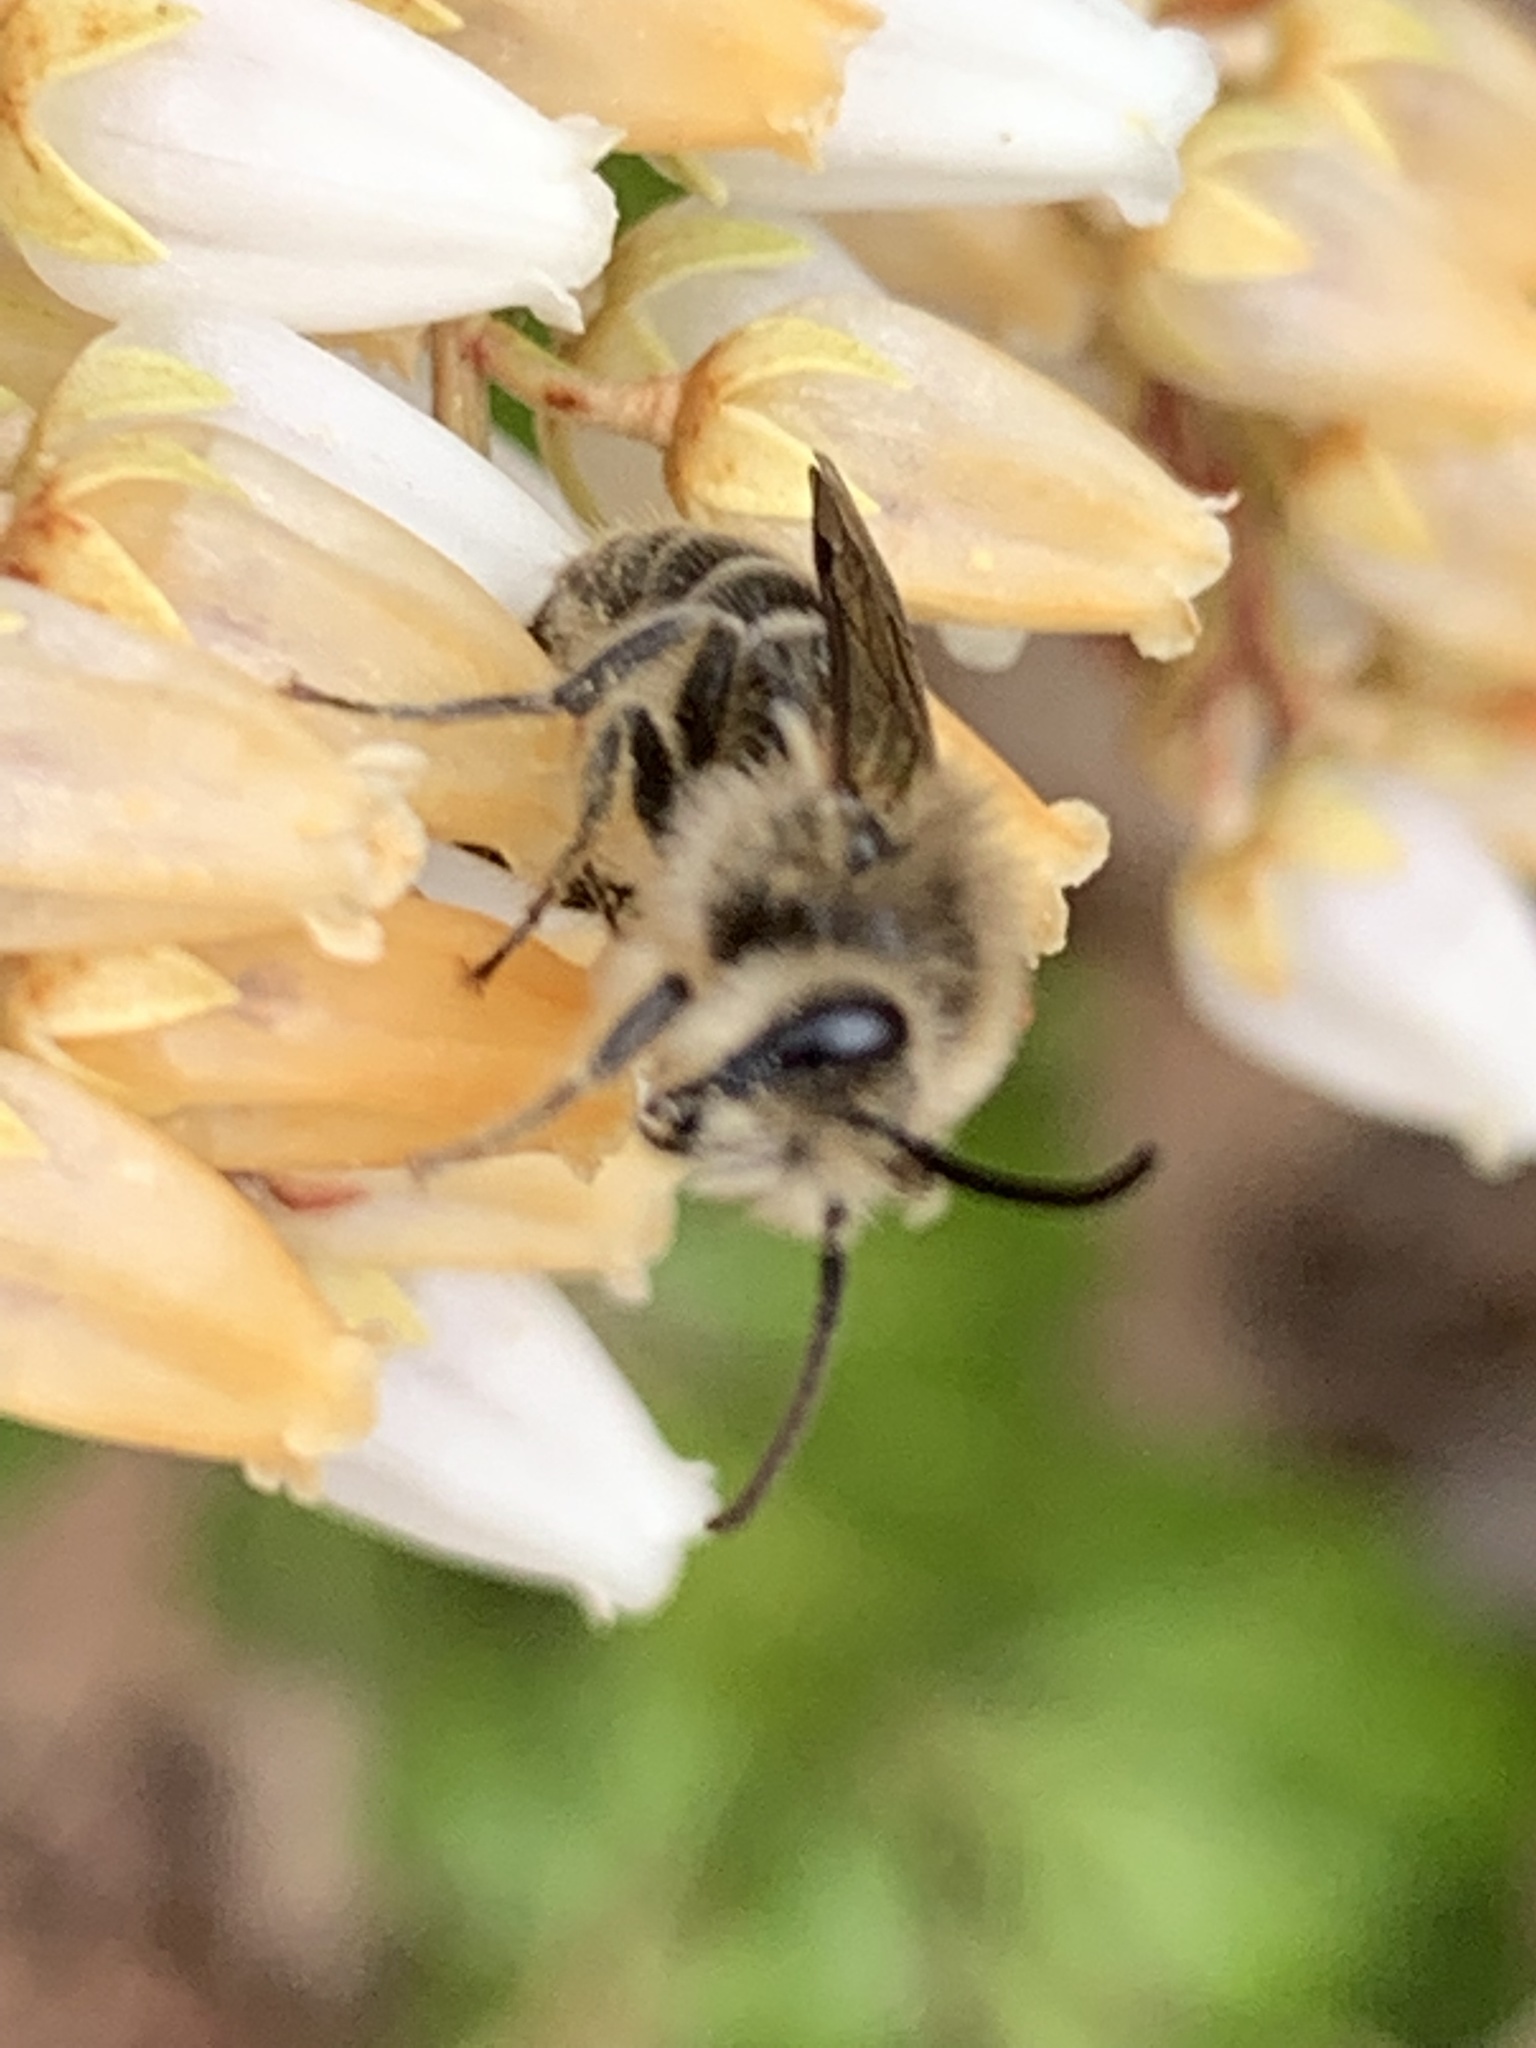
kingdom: Animalia
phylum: Arthropoda
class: Insecta
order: Hymenoptera
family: Colletidae
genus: Colletes
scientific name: Colletes inaequalis
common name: Unequal cellophane bee
